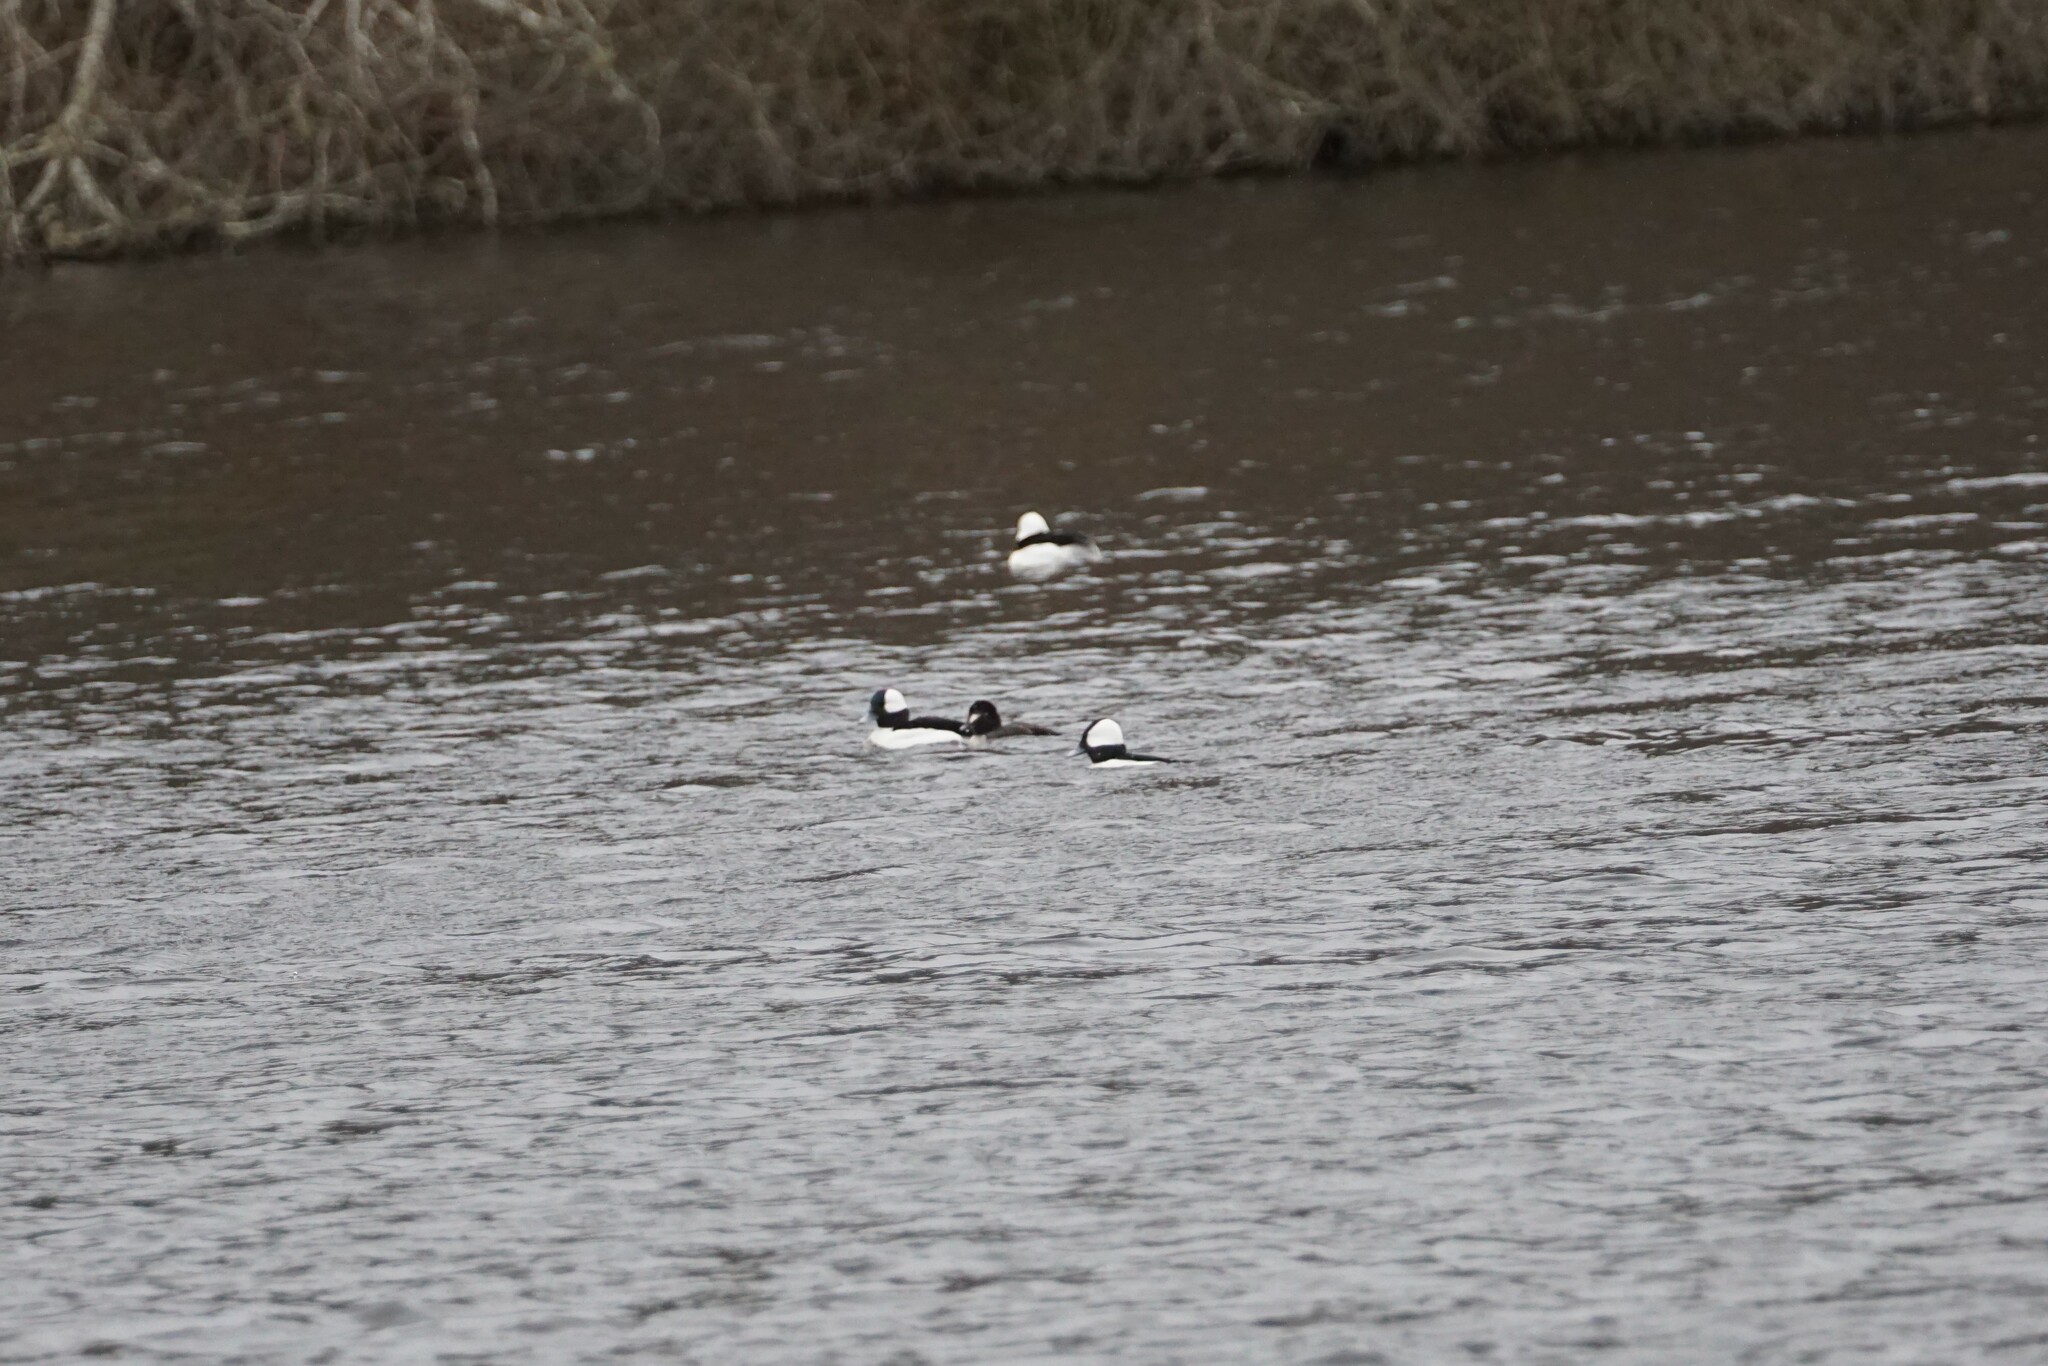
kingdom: Animalia
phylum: Chordata
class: Aves
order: Anseriformes
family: Anatidae
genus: Bucephala
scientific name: Bucephala albeola
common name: Bufflehead
